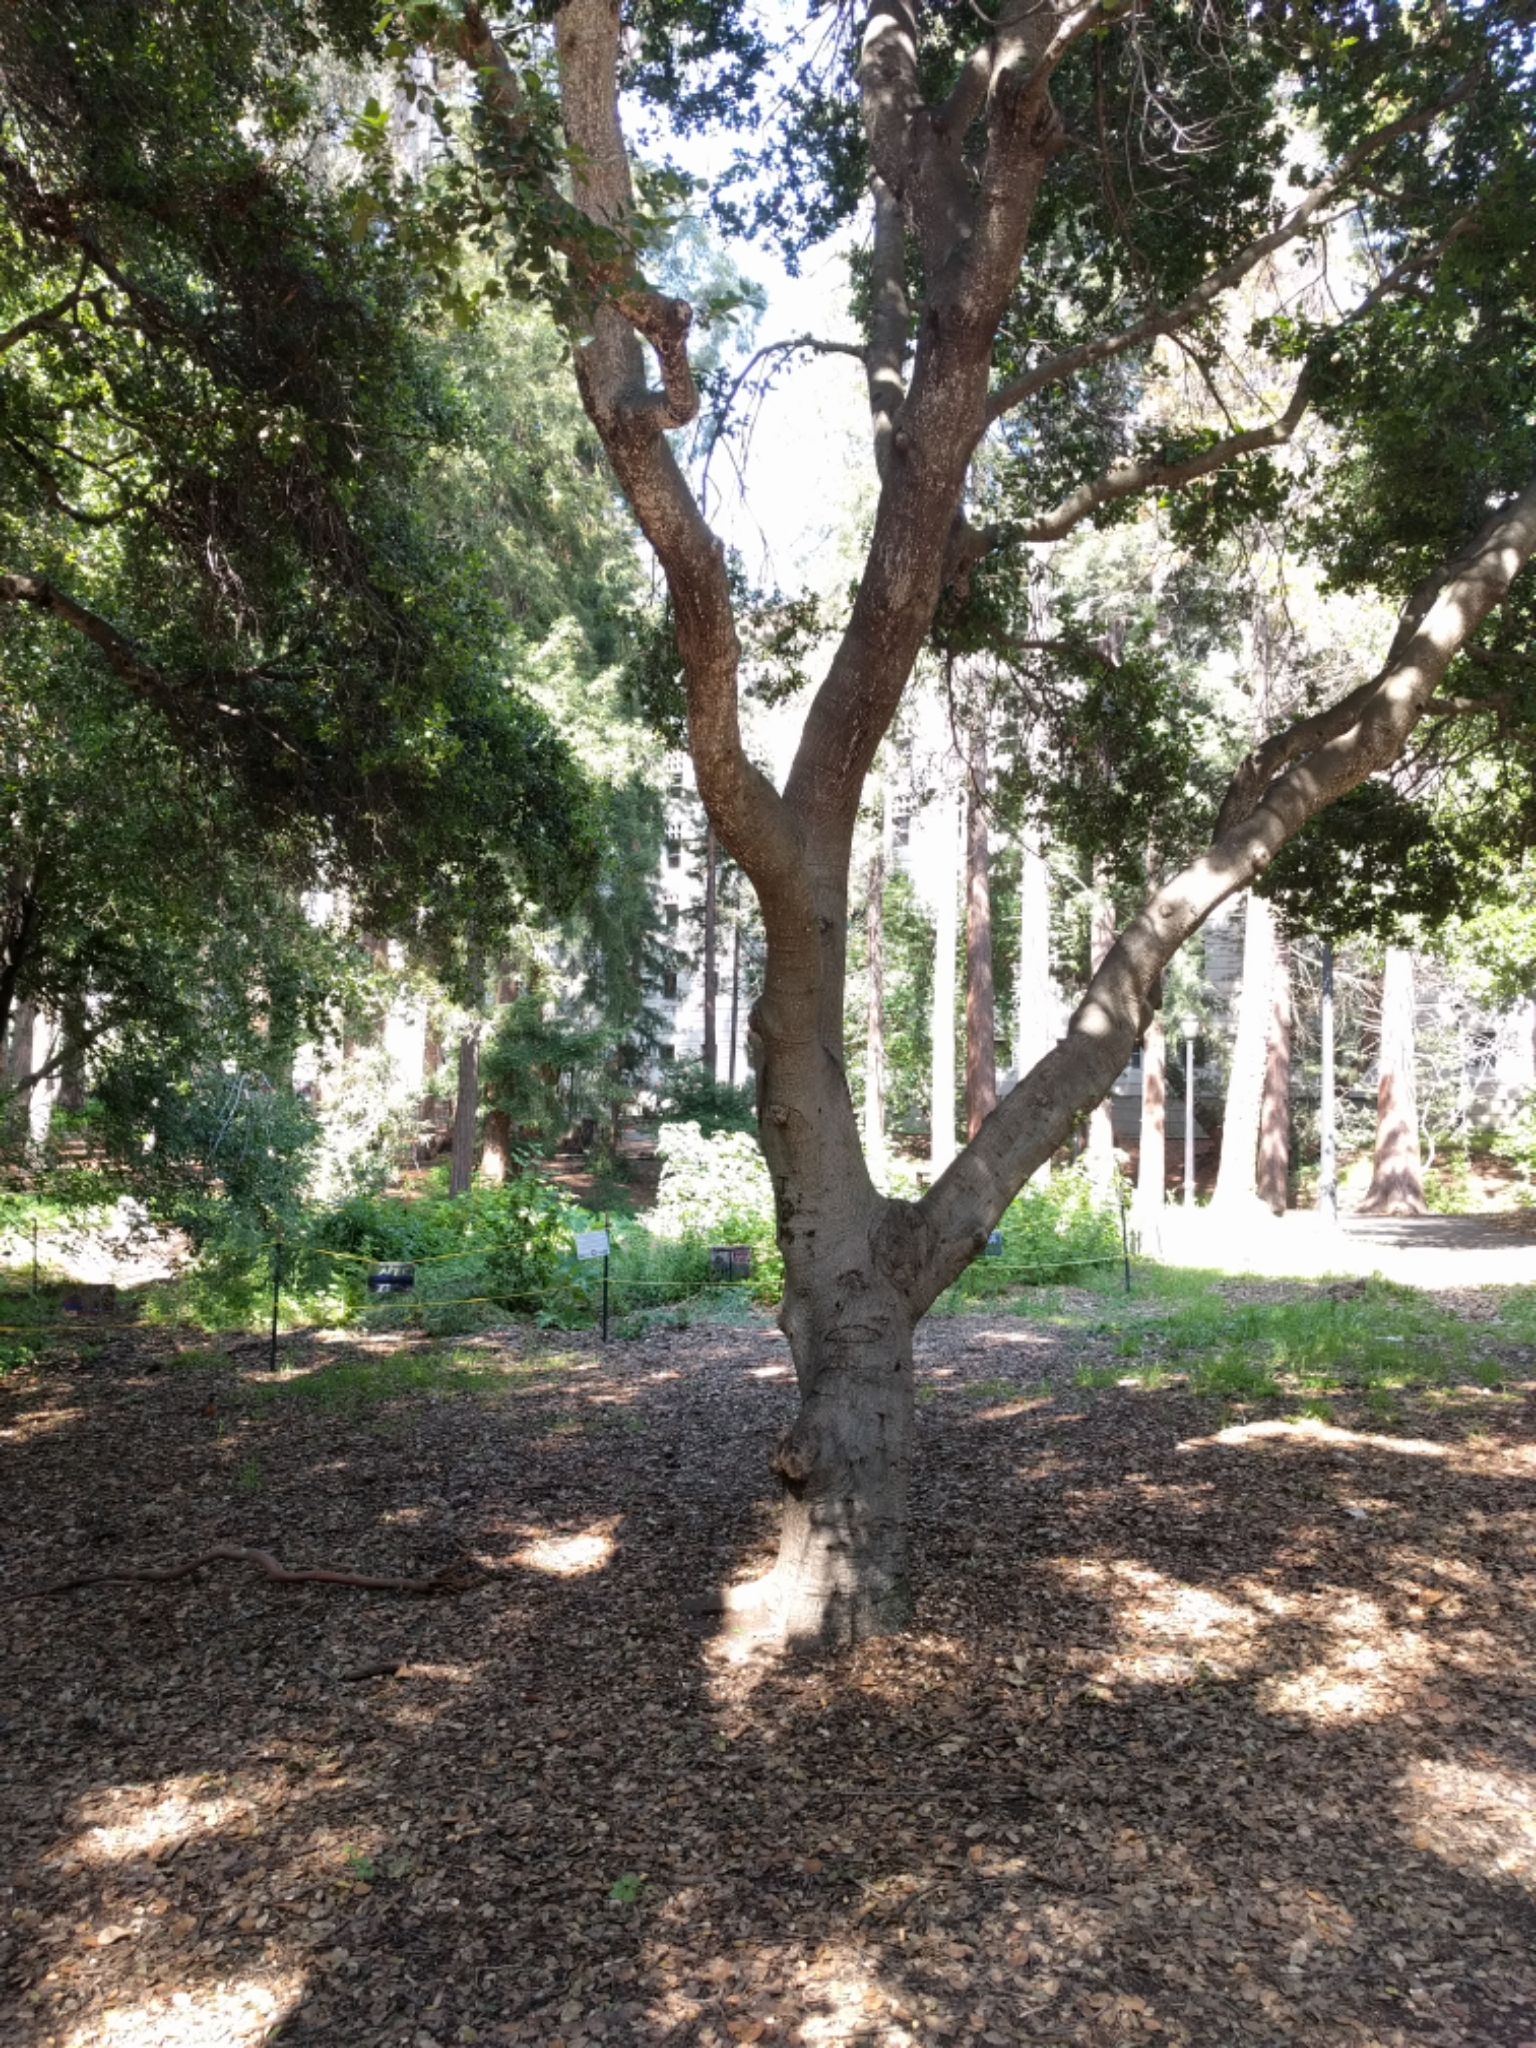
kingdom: Plantae
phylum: Tracheophyta
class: Magnoliopsida
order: Fagales
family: Fagaceae
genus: Quercus
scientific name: Quercus agrifolia
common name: California live oak
